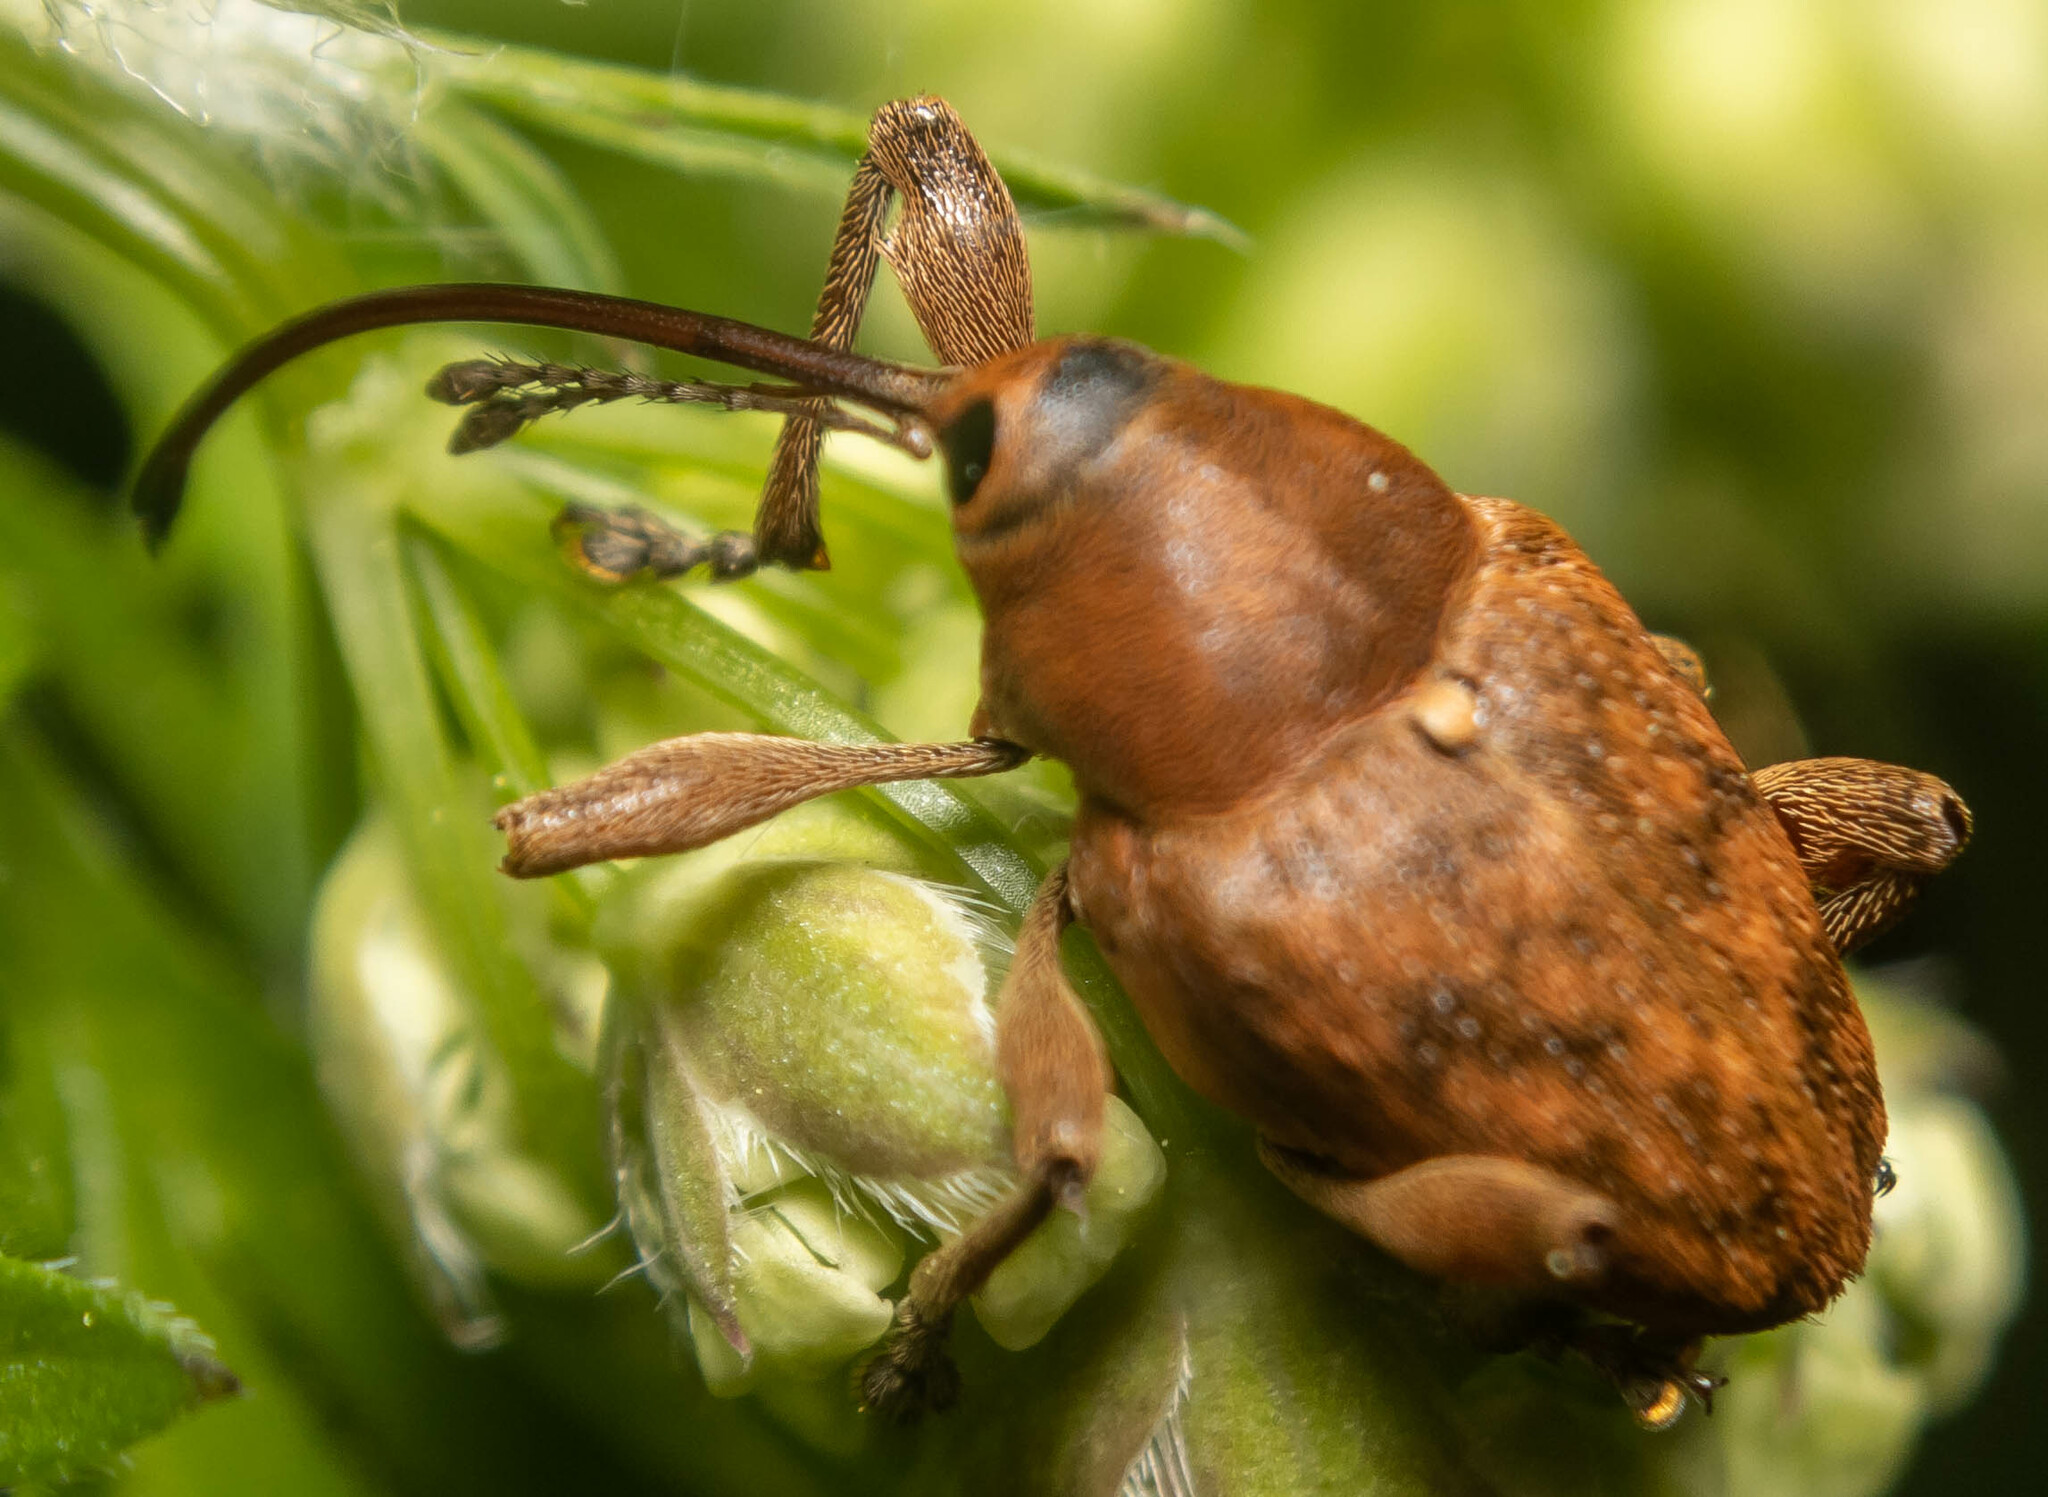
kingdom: Animalia
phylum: Arthropoda
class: Insecta
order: Coleoptera
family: Curculionidae
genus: Curculio
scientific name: Curculio glandium
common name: Acorn weevil
